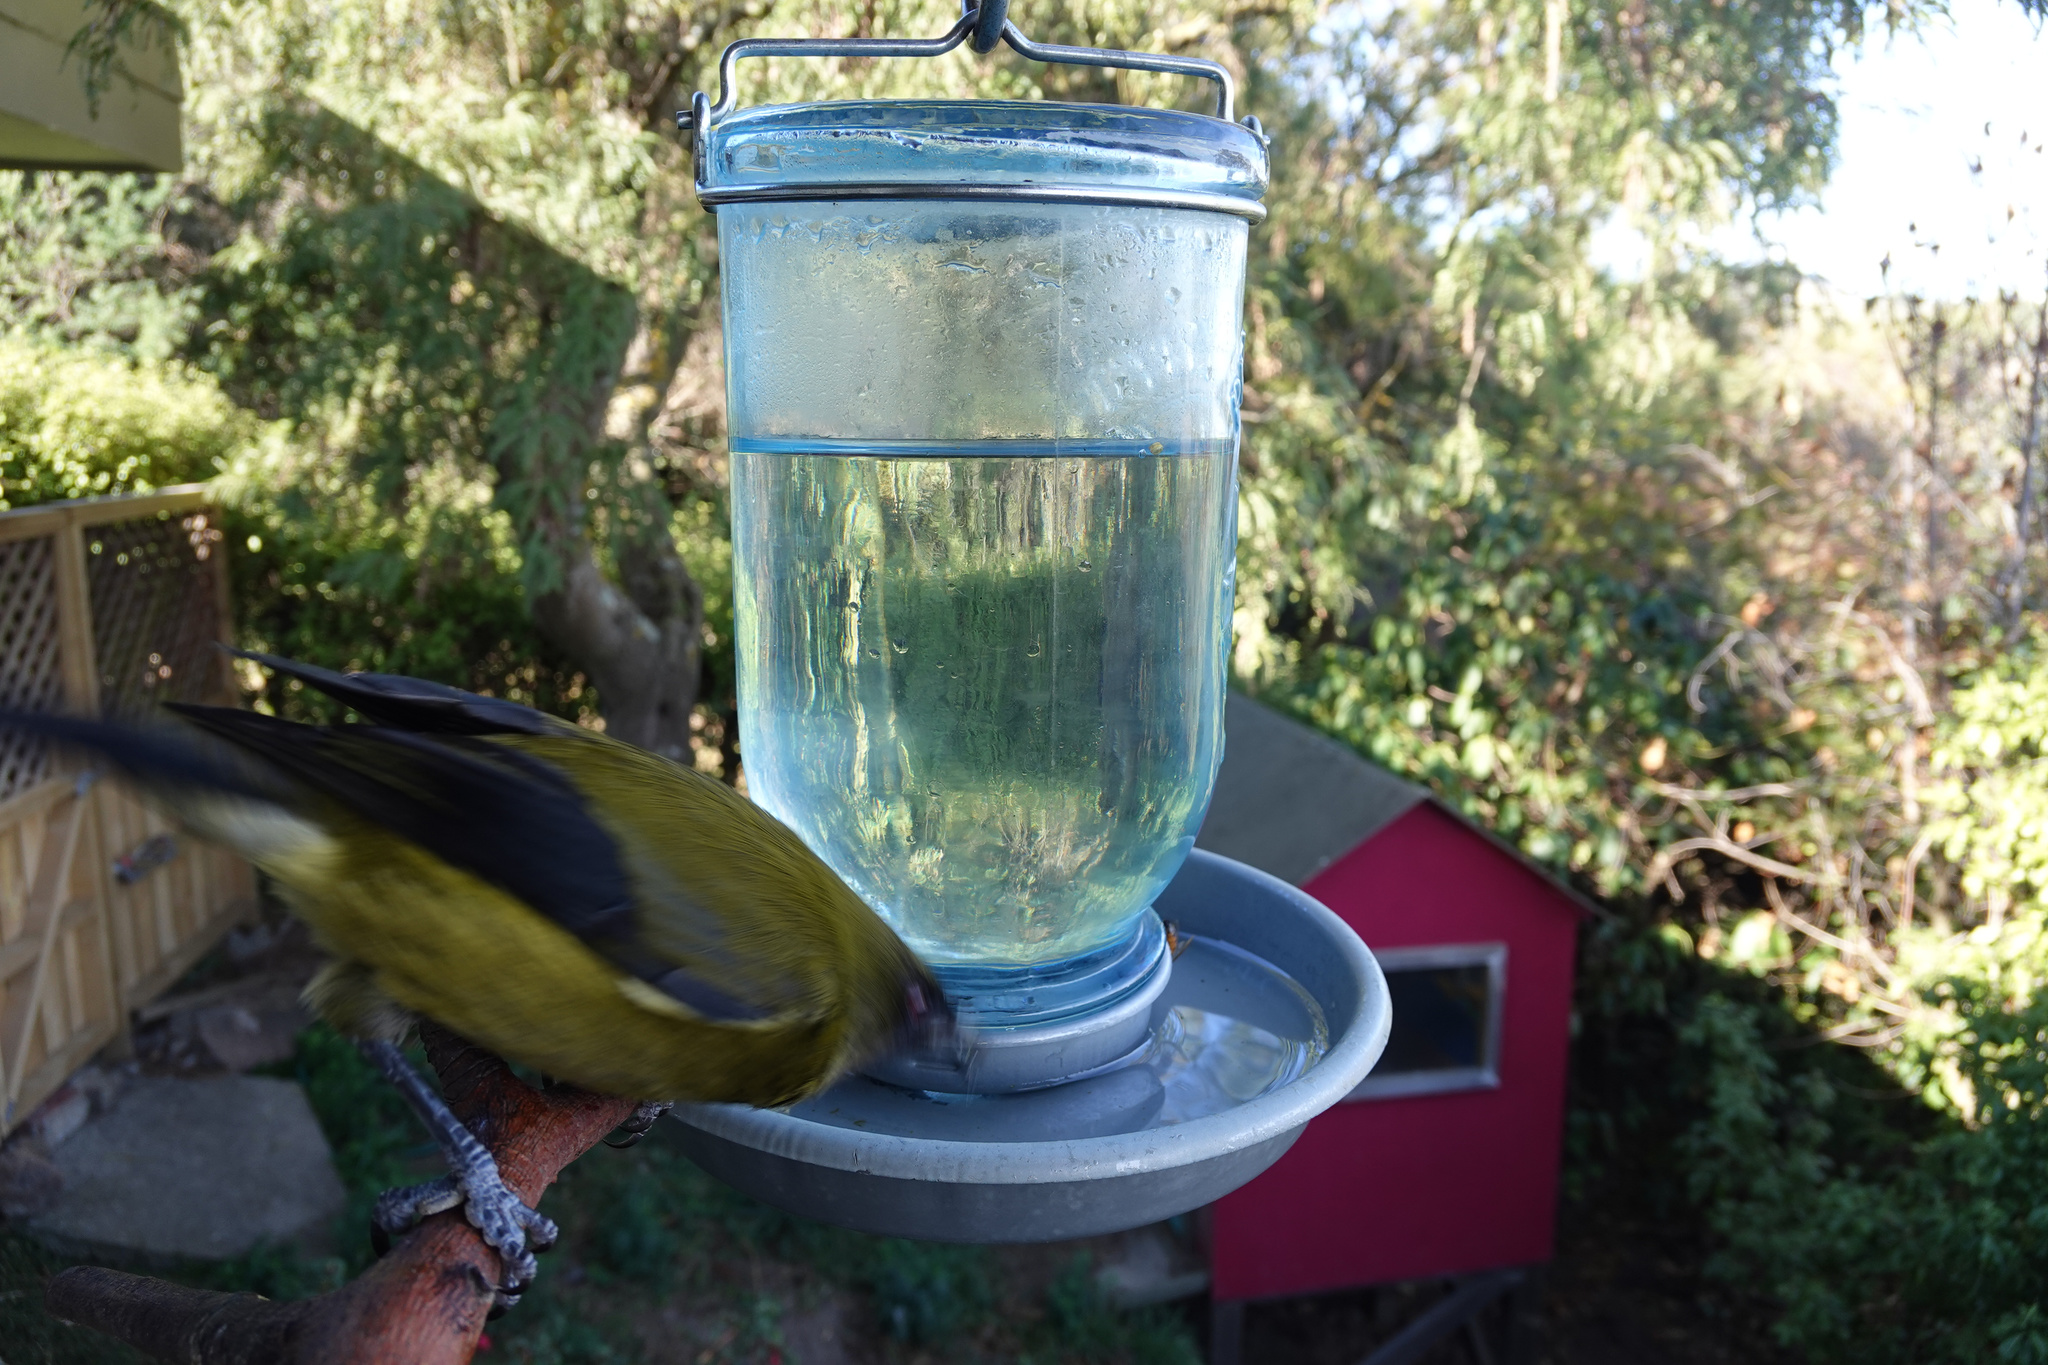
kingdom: Animalia
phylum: Chordata
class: Aves
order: Passeriformes
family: Meliphagidae
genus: Anthornis
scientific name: Anthornis melanura
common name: New zealand bellbird
